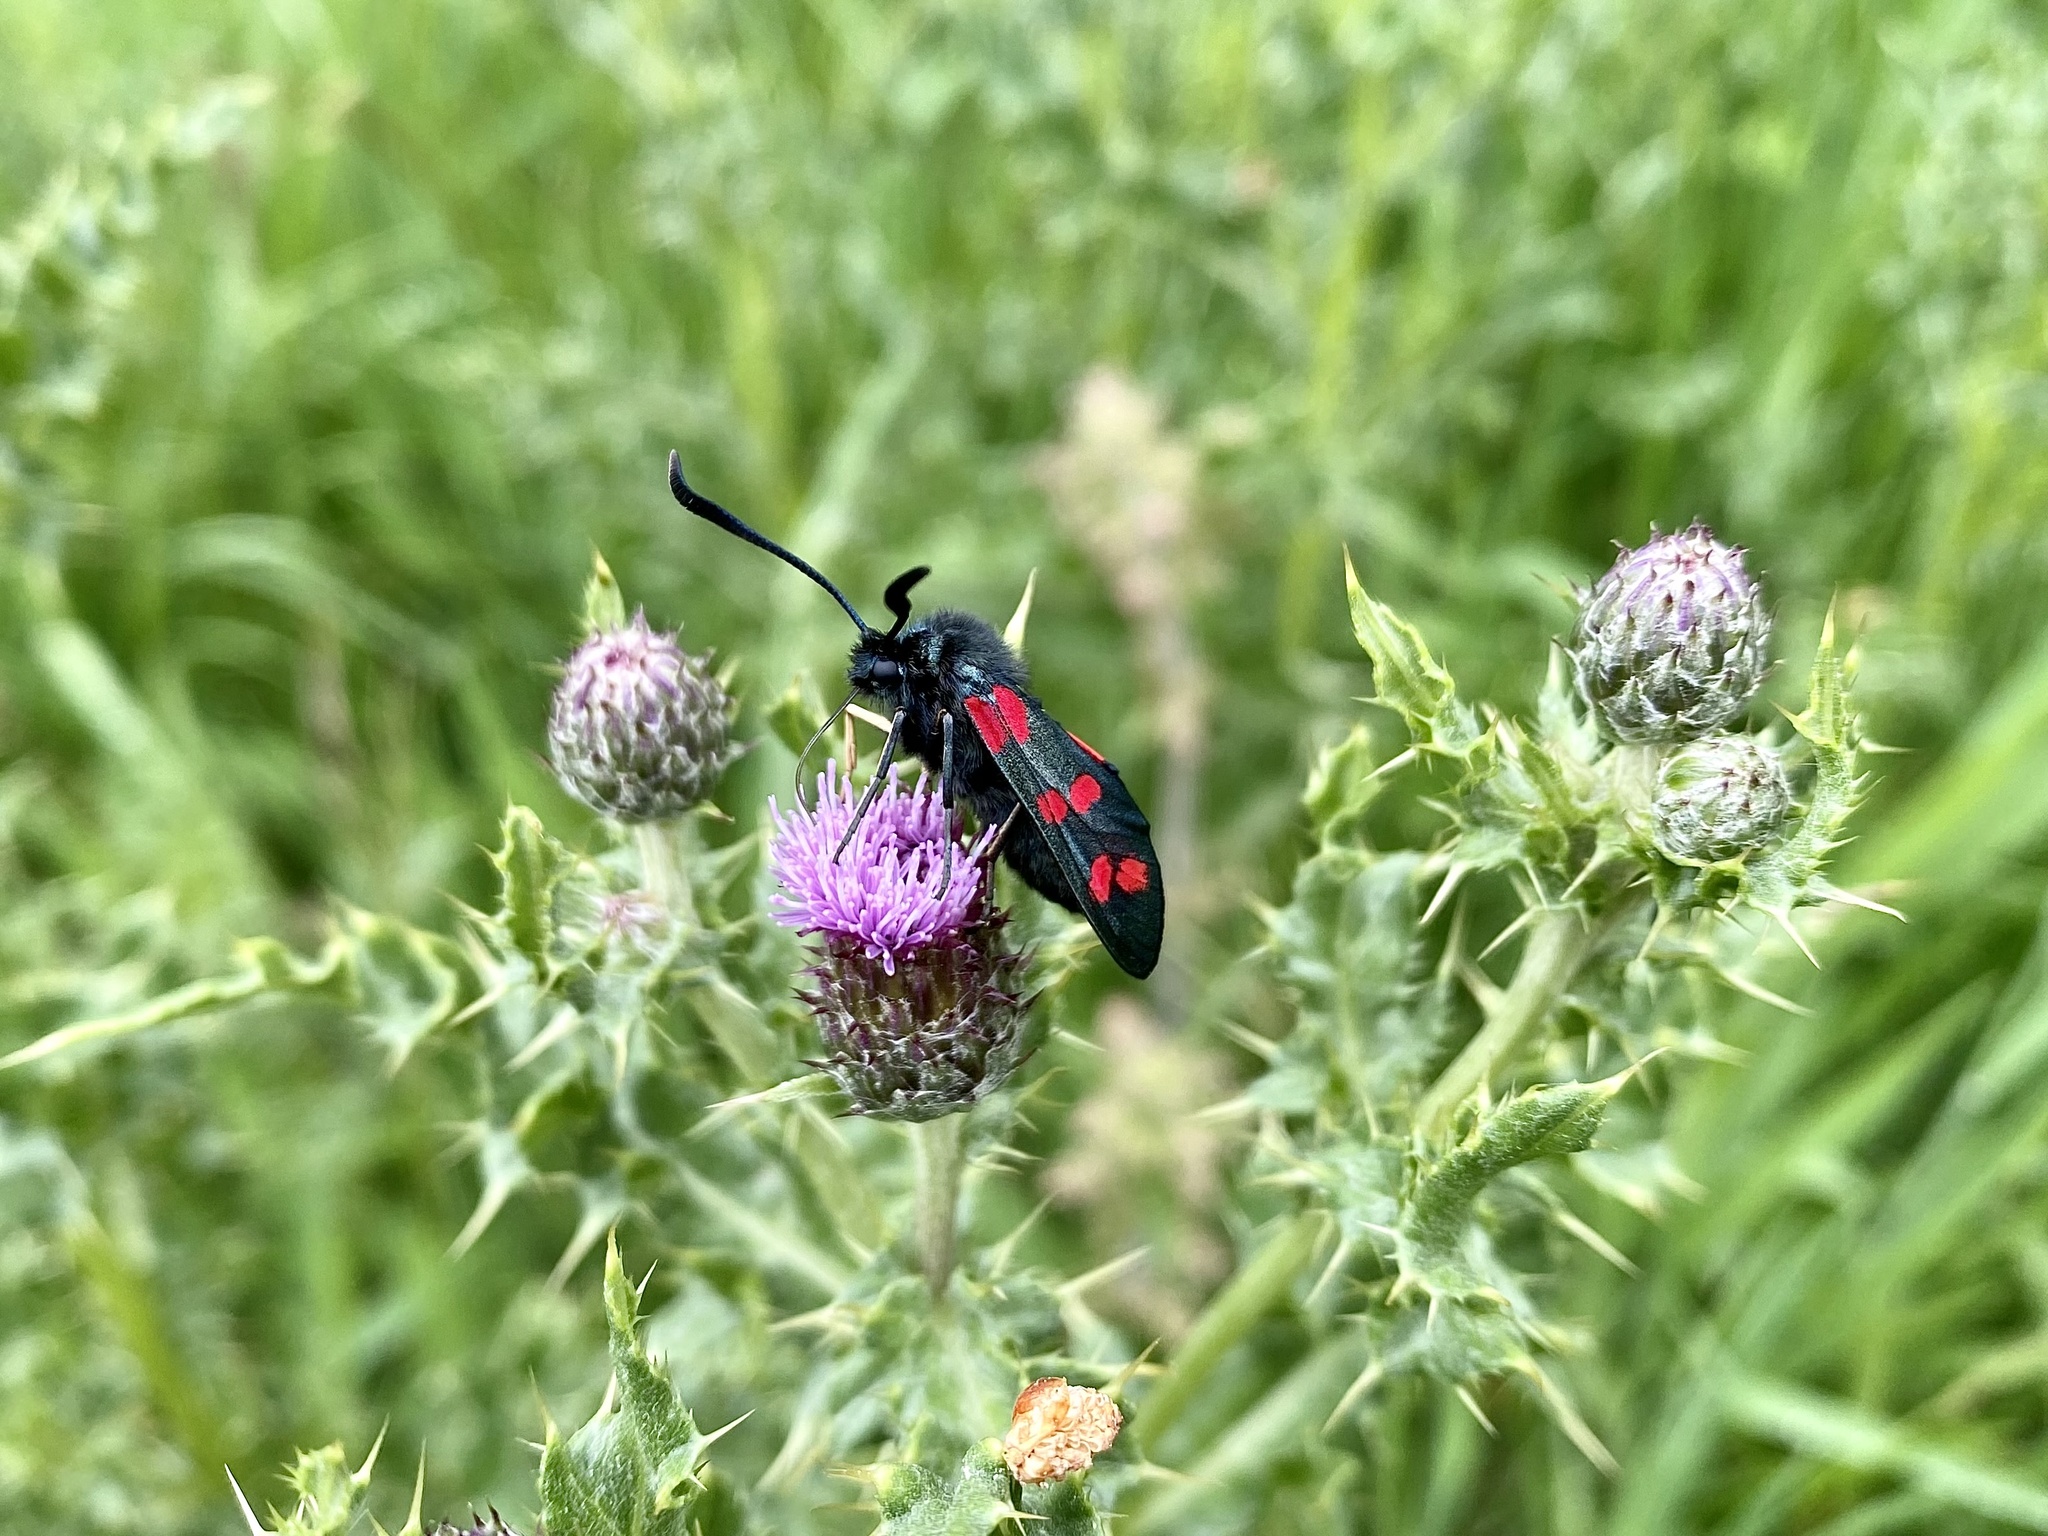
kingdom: Animalia
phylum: Arthropoda
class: Insecta
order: Lepidoptera
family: Zygaenidae
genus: Zygaena
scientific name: Zygaena filipendulae
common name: Six-spot burnet
